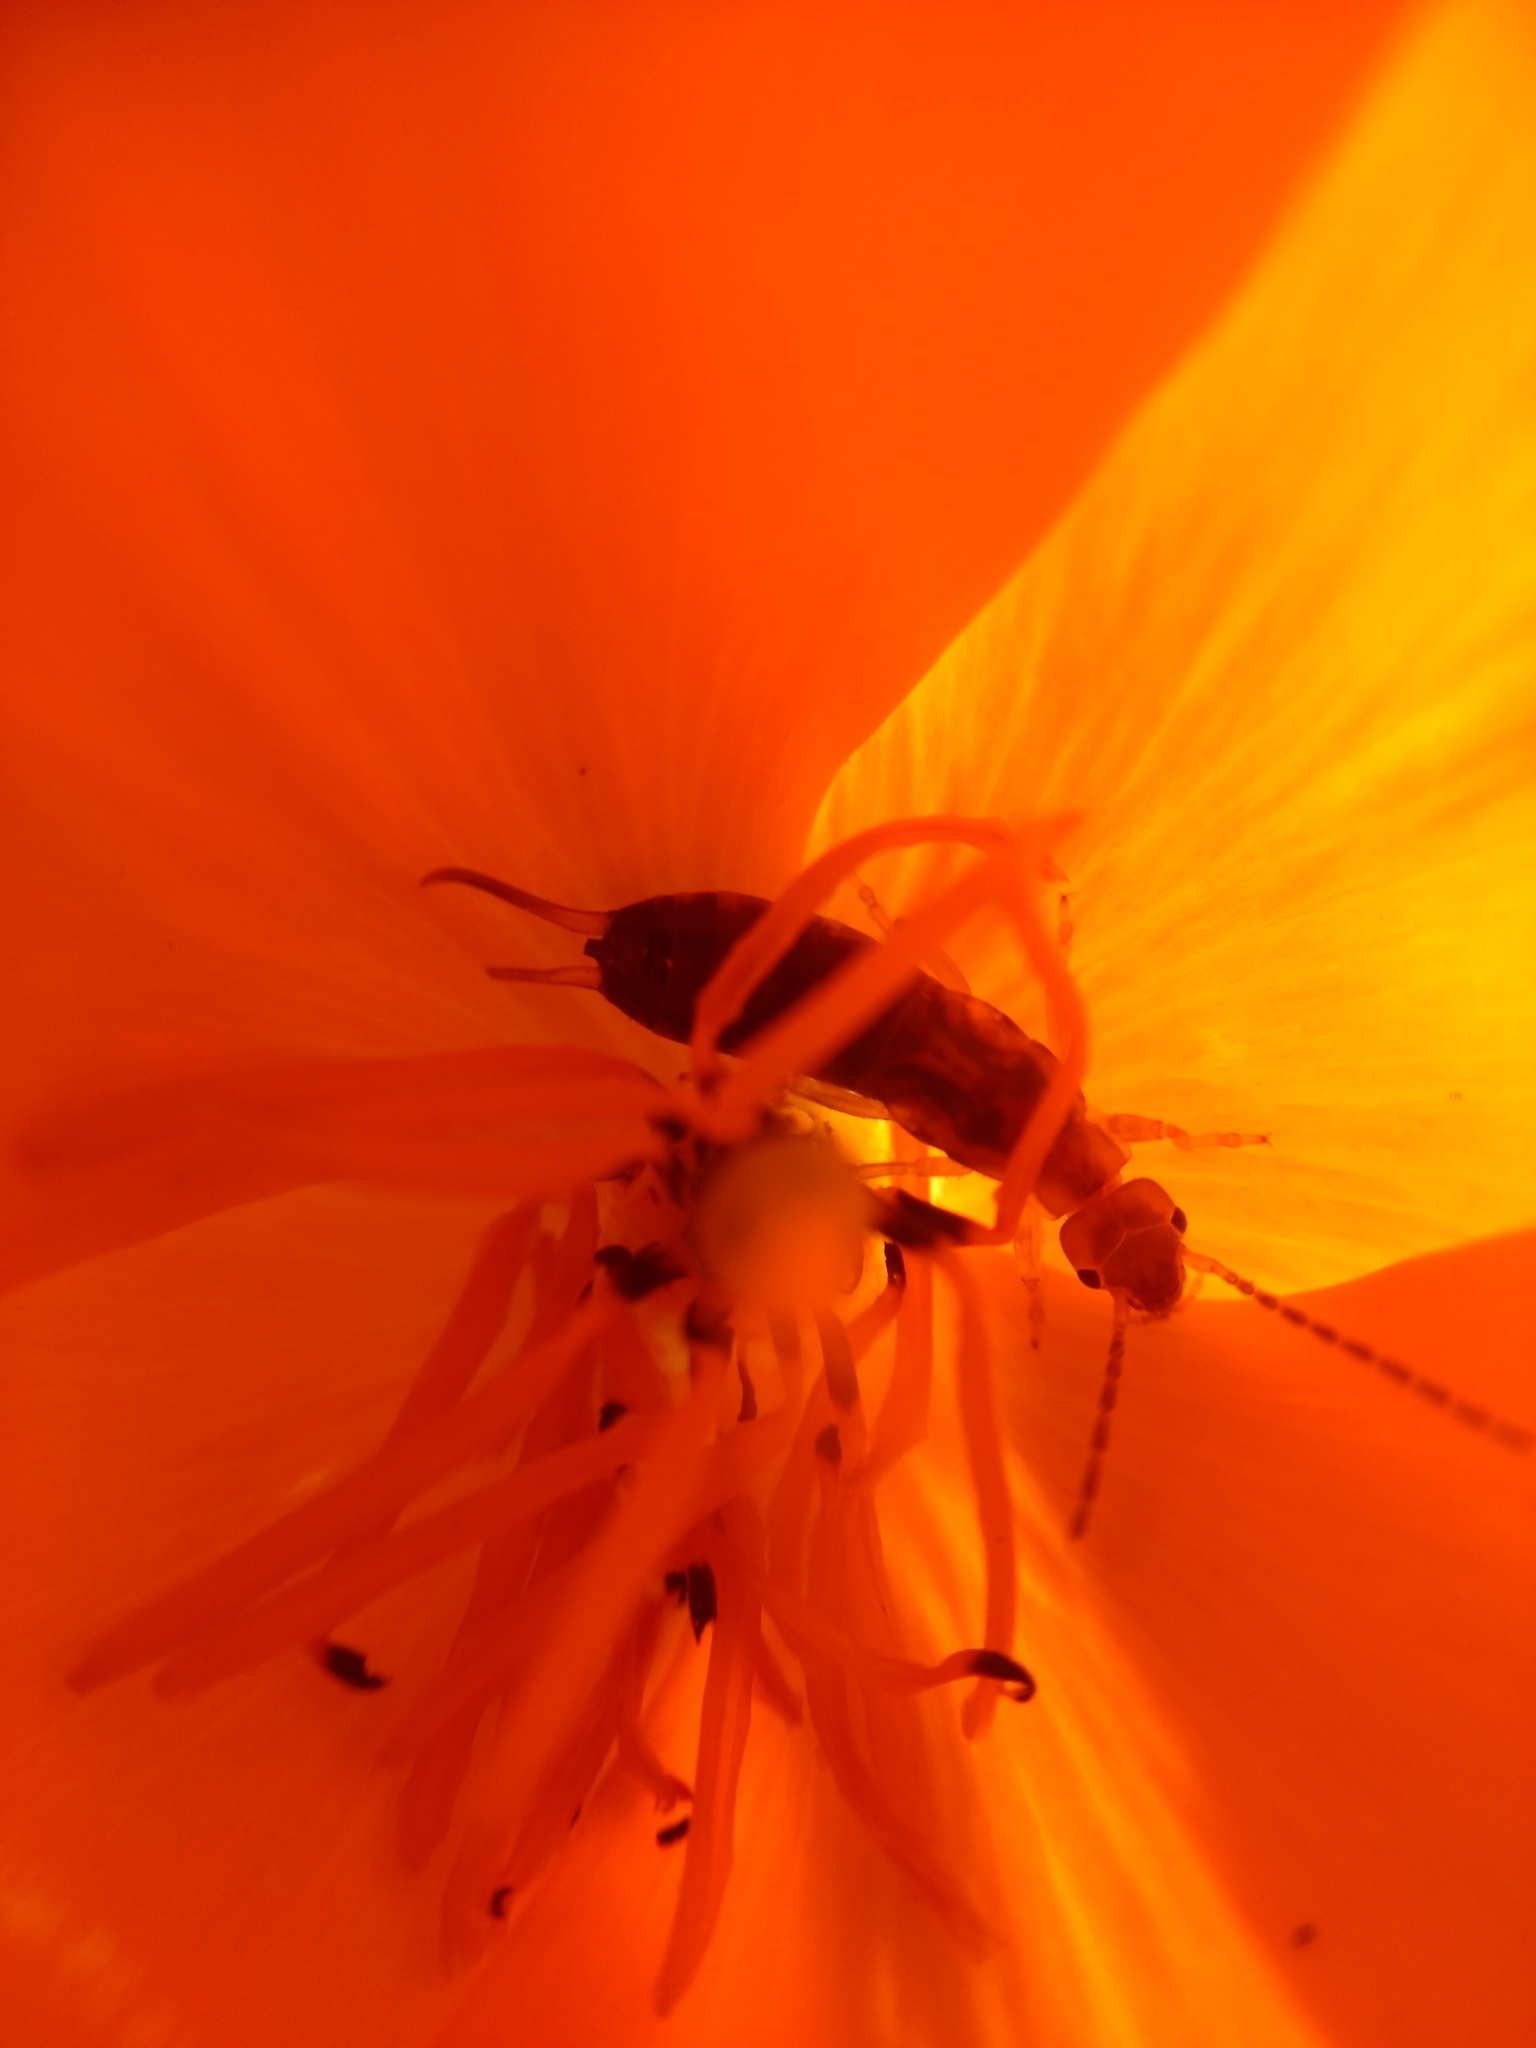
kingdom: Animalia
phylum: Arthropoda
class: Insecta
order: Dermaptera
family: Forficulidae
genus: Forficula
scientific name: Forficula
